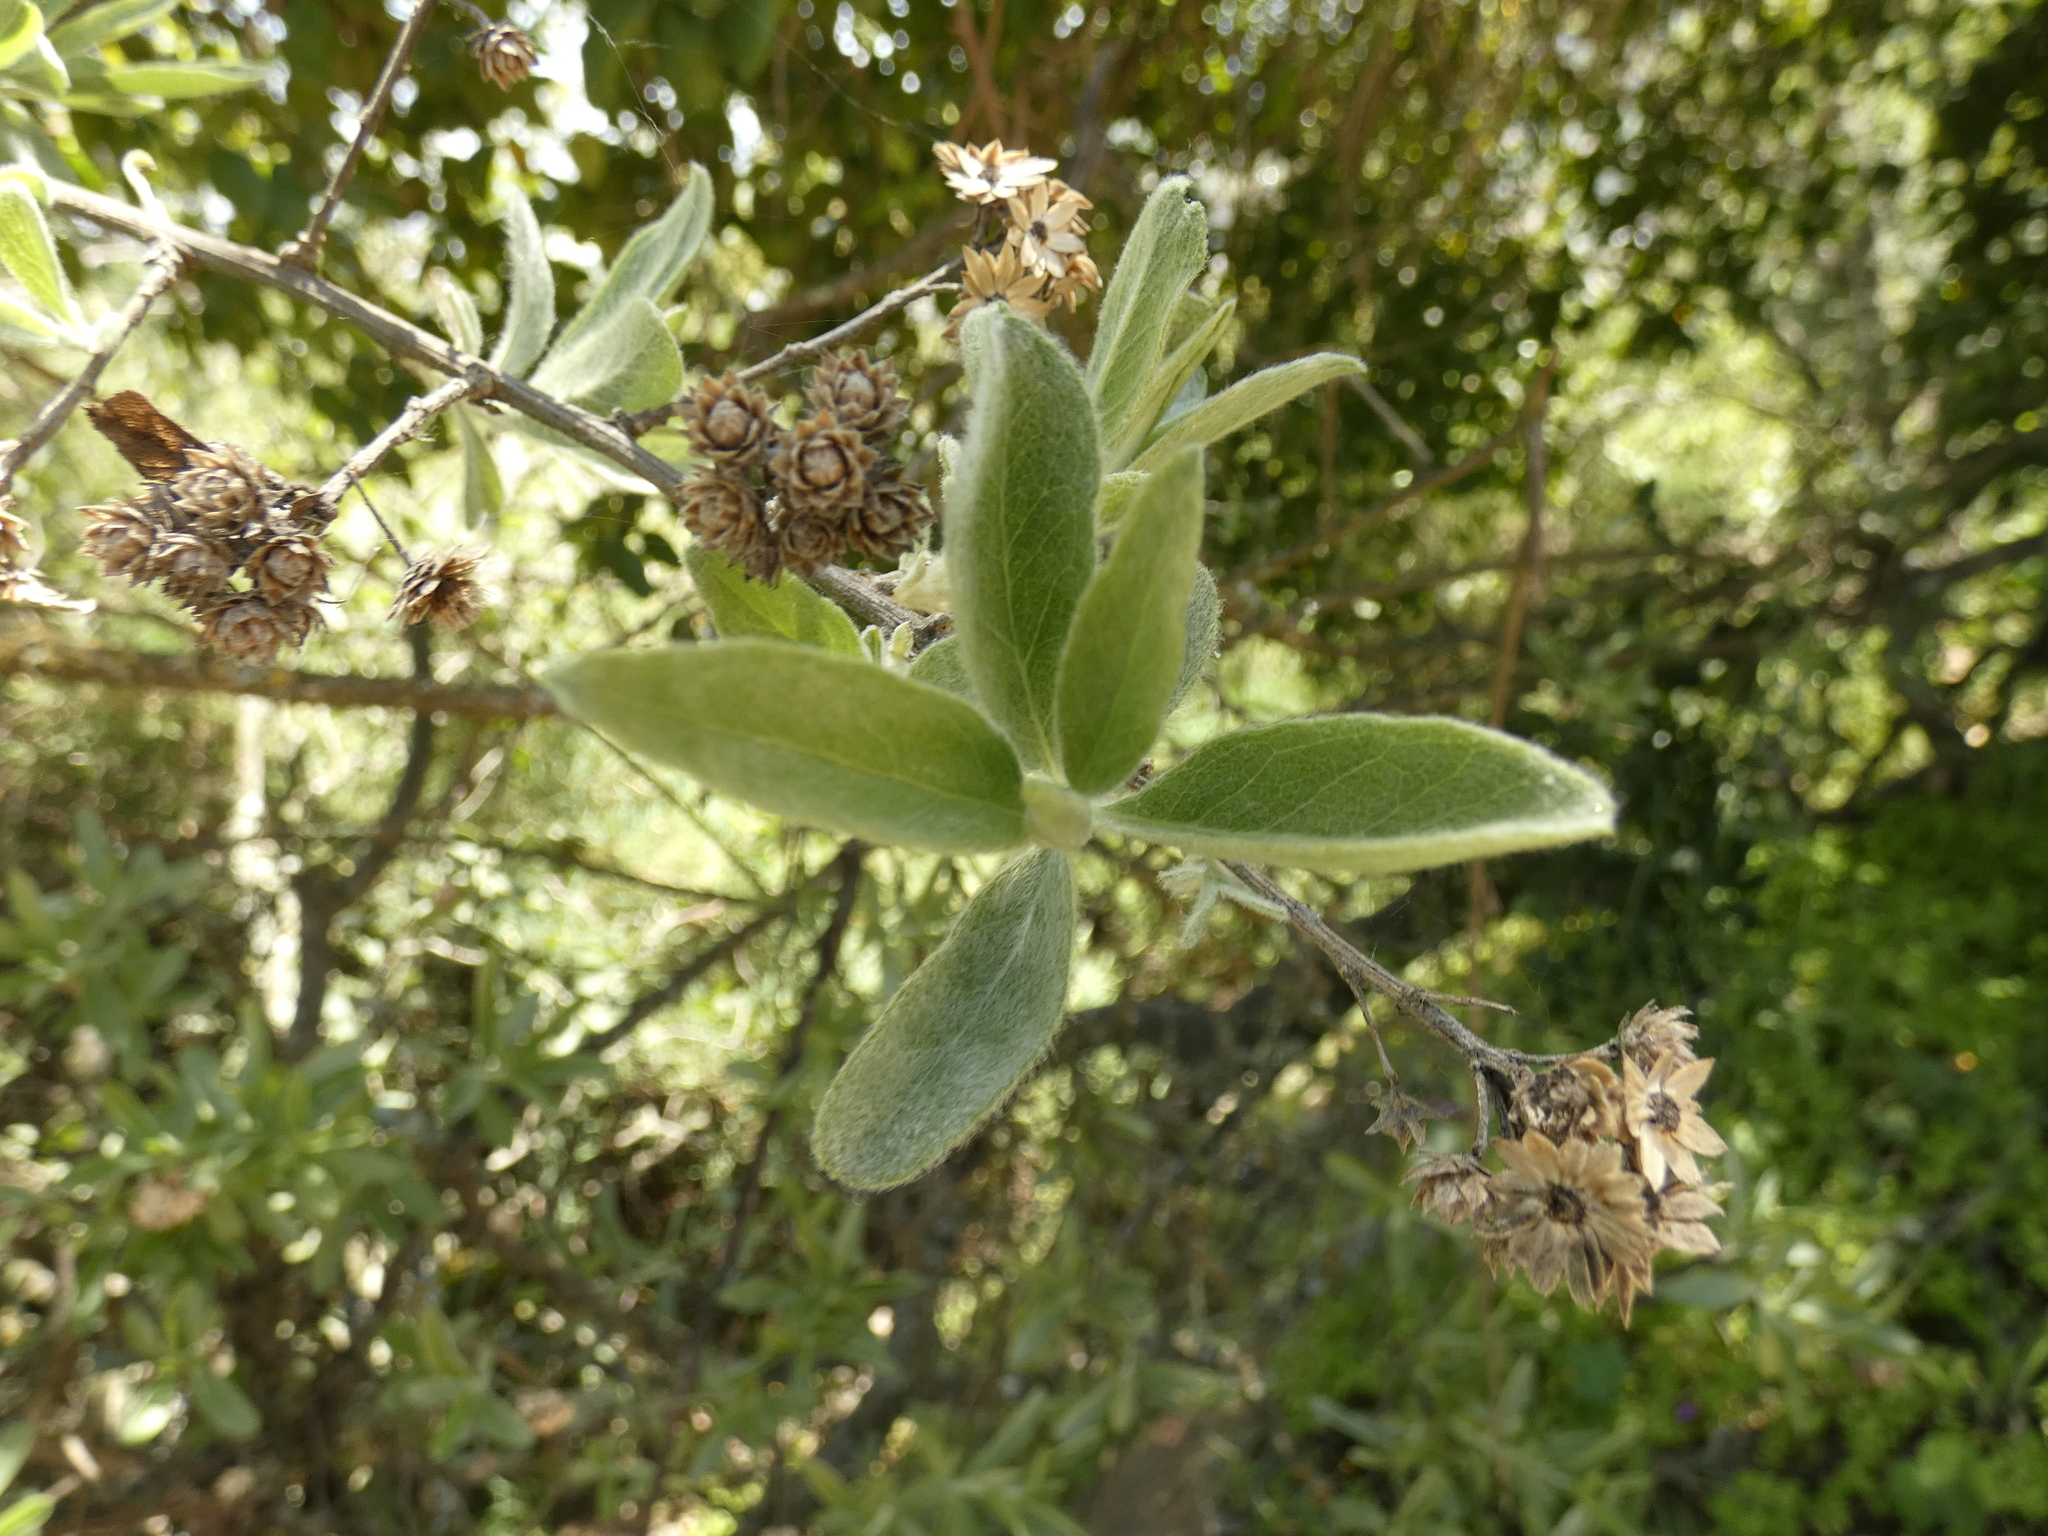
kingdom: Plantae
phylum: Tracheophyta
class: Magnoliopsida
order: Asterales
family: Asteraceae
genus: Gochnatia
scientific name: Gochnatia foliolosa
